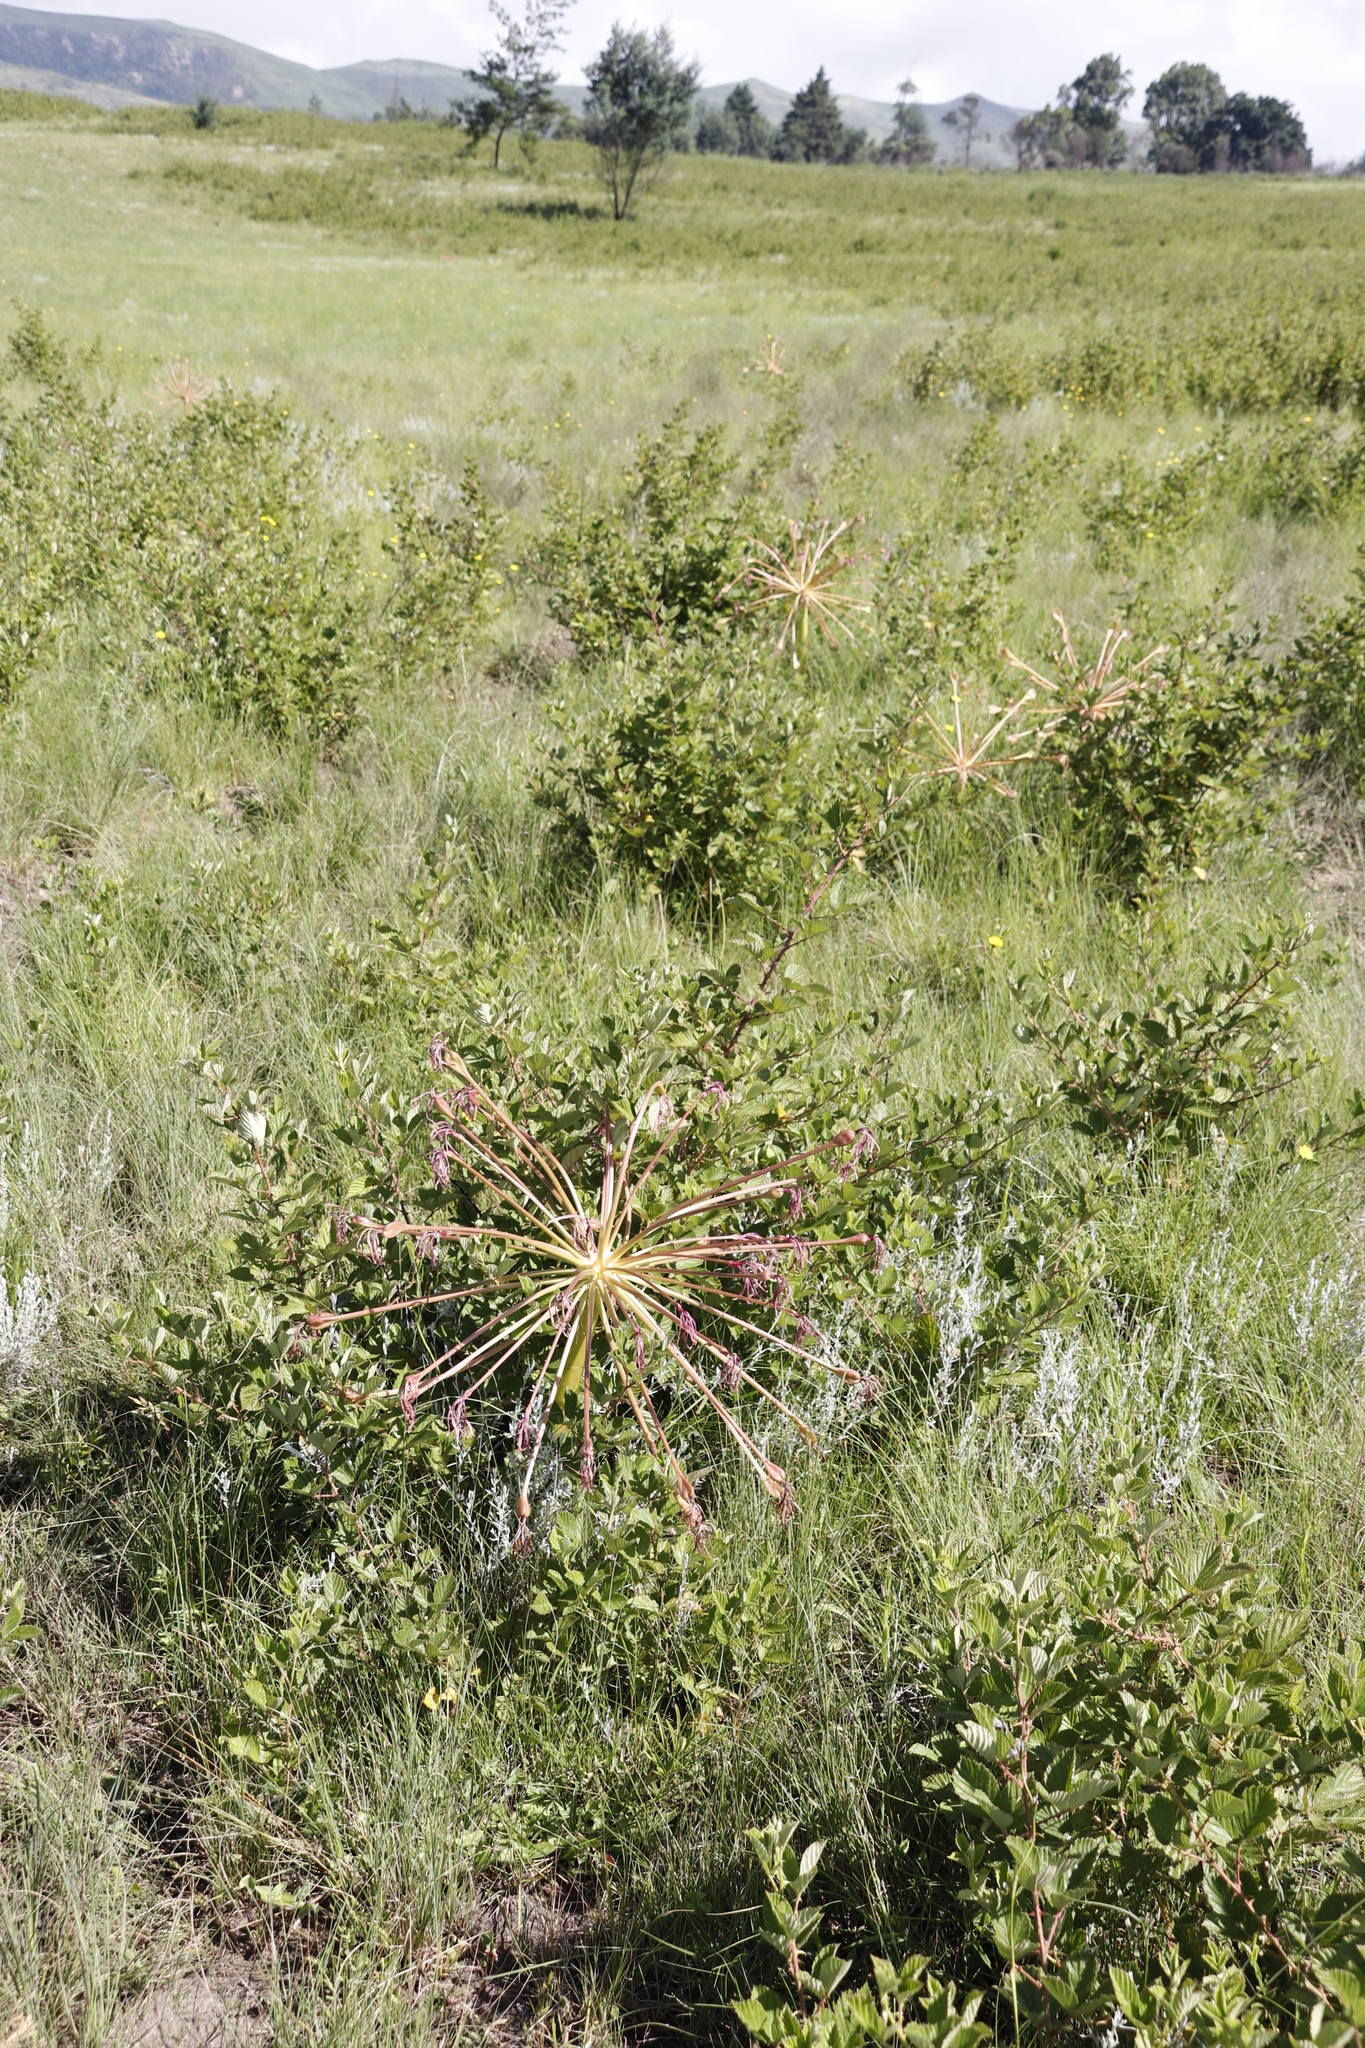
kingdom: Plantae
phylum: Tracheophyta
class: Liliopsida
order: Asparagales
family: Amaryllidaceae
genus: Brunsvigia
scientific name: Brunsvigia radulosa
